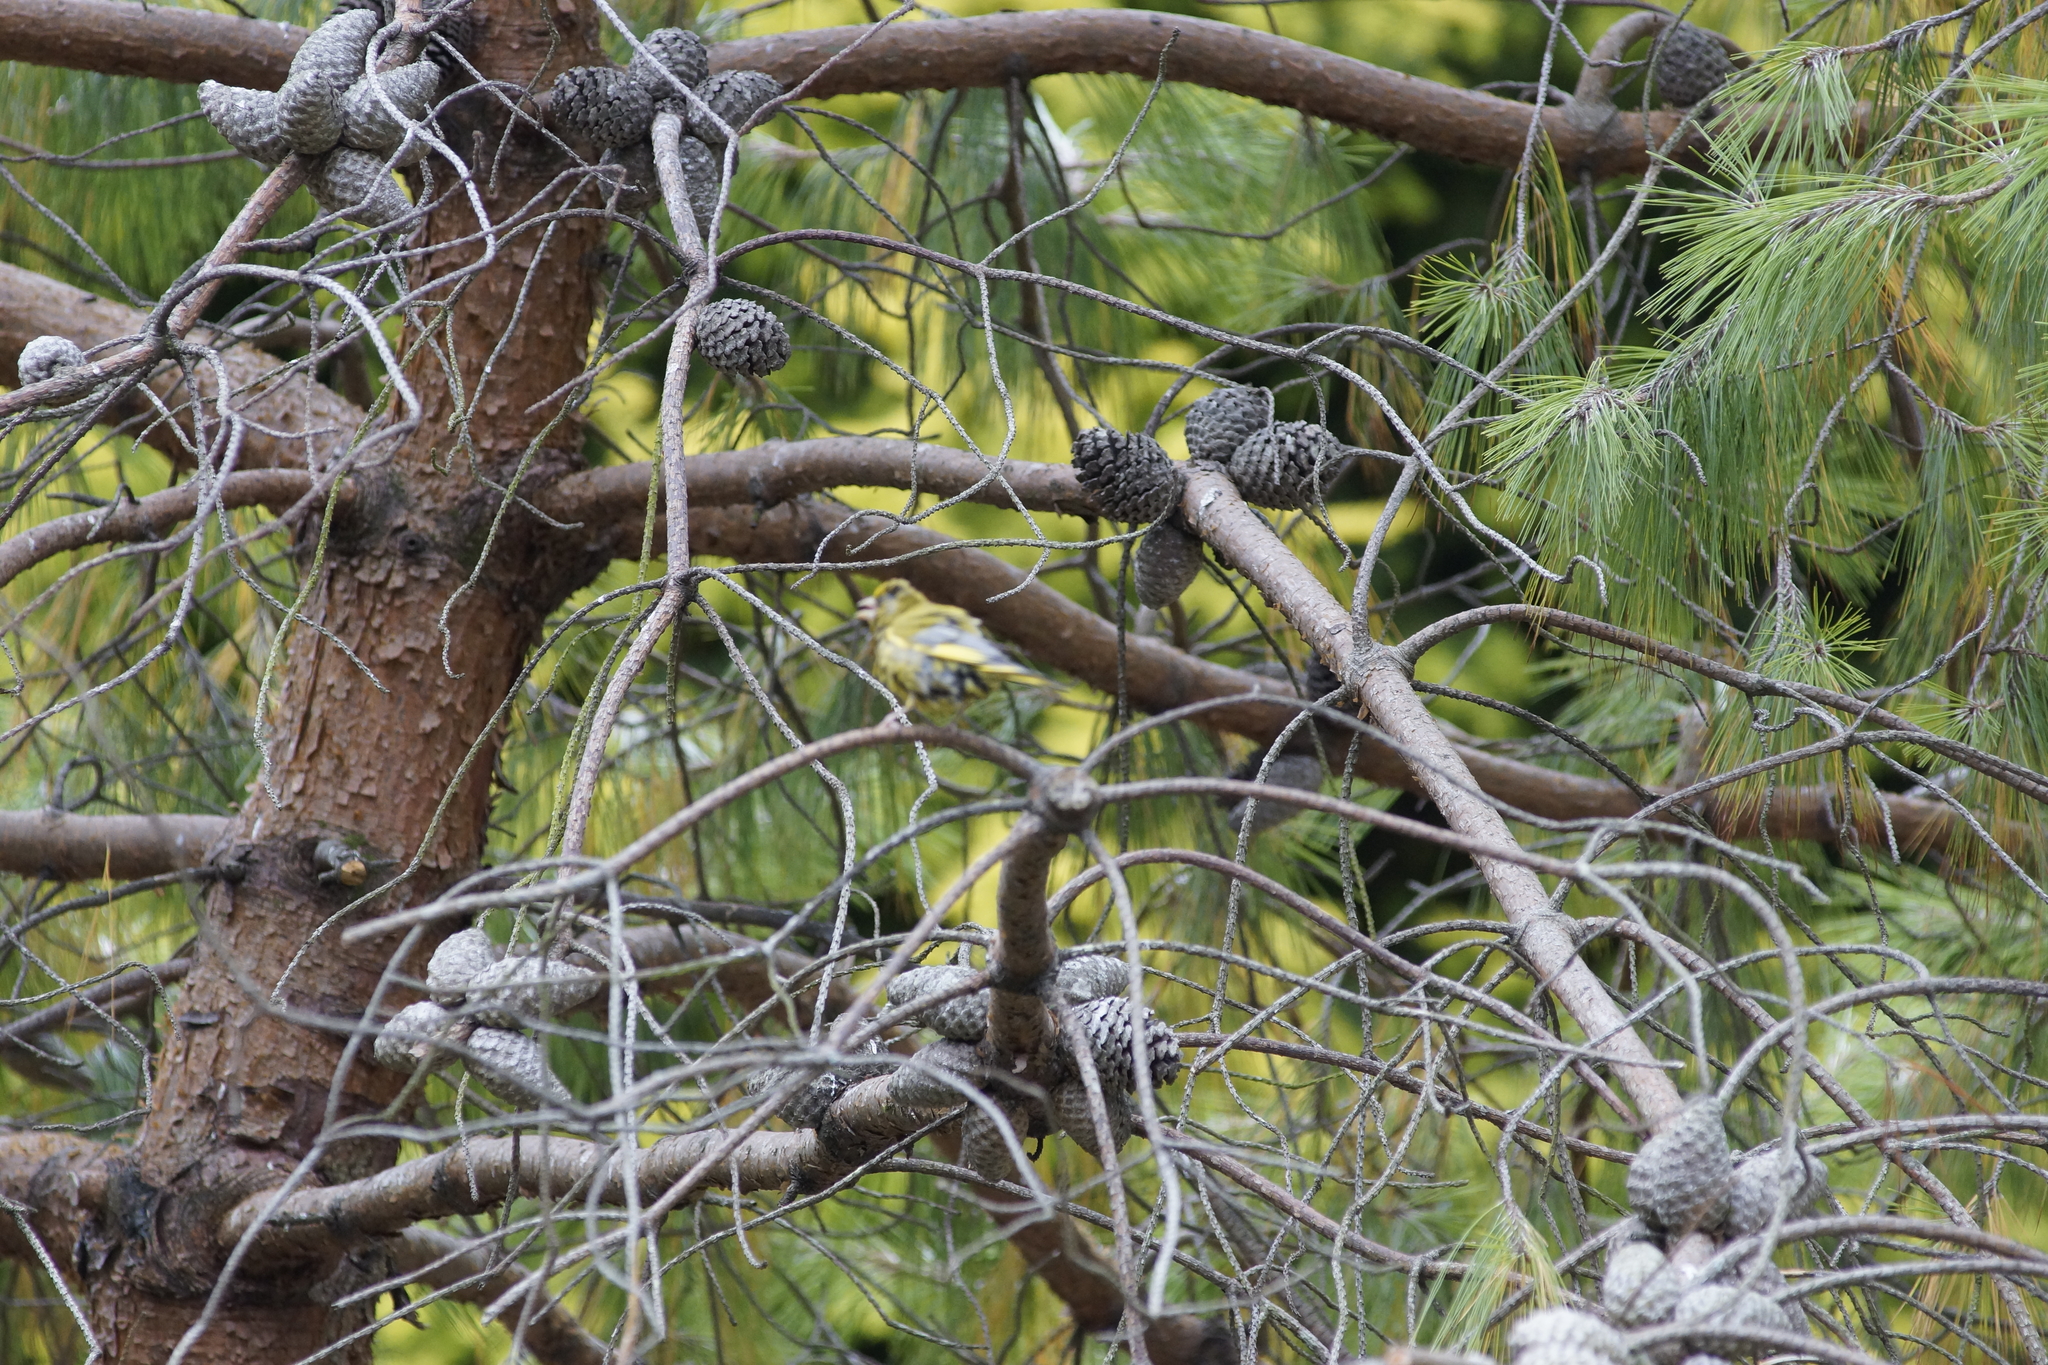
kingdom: Plantae
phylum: Tracheophyta
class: Liliopsida
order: Poales
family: Poaceae
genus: Chloris
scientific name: Chloris chloris
